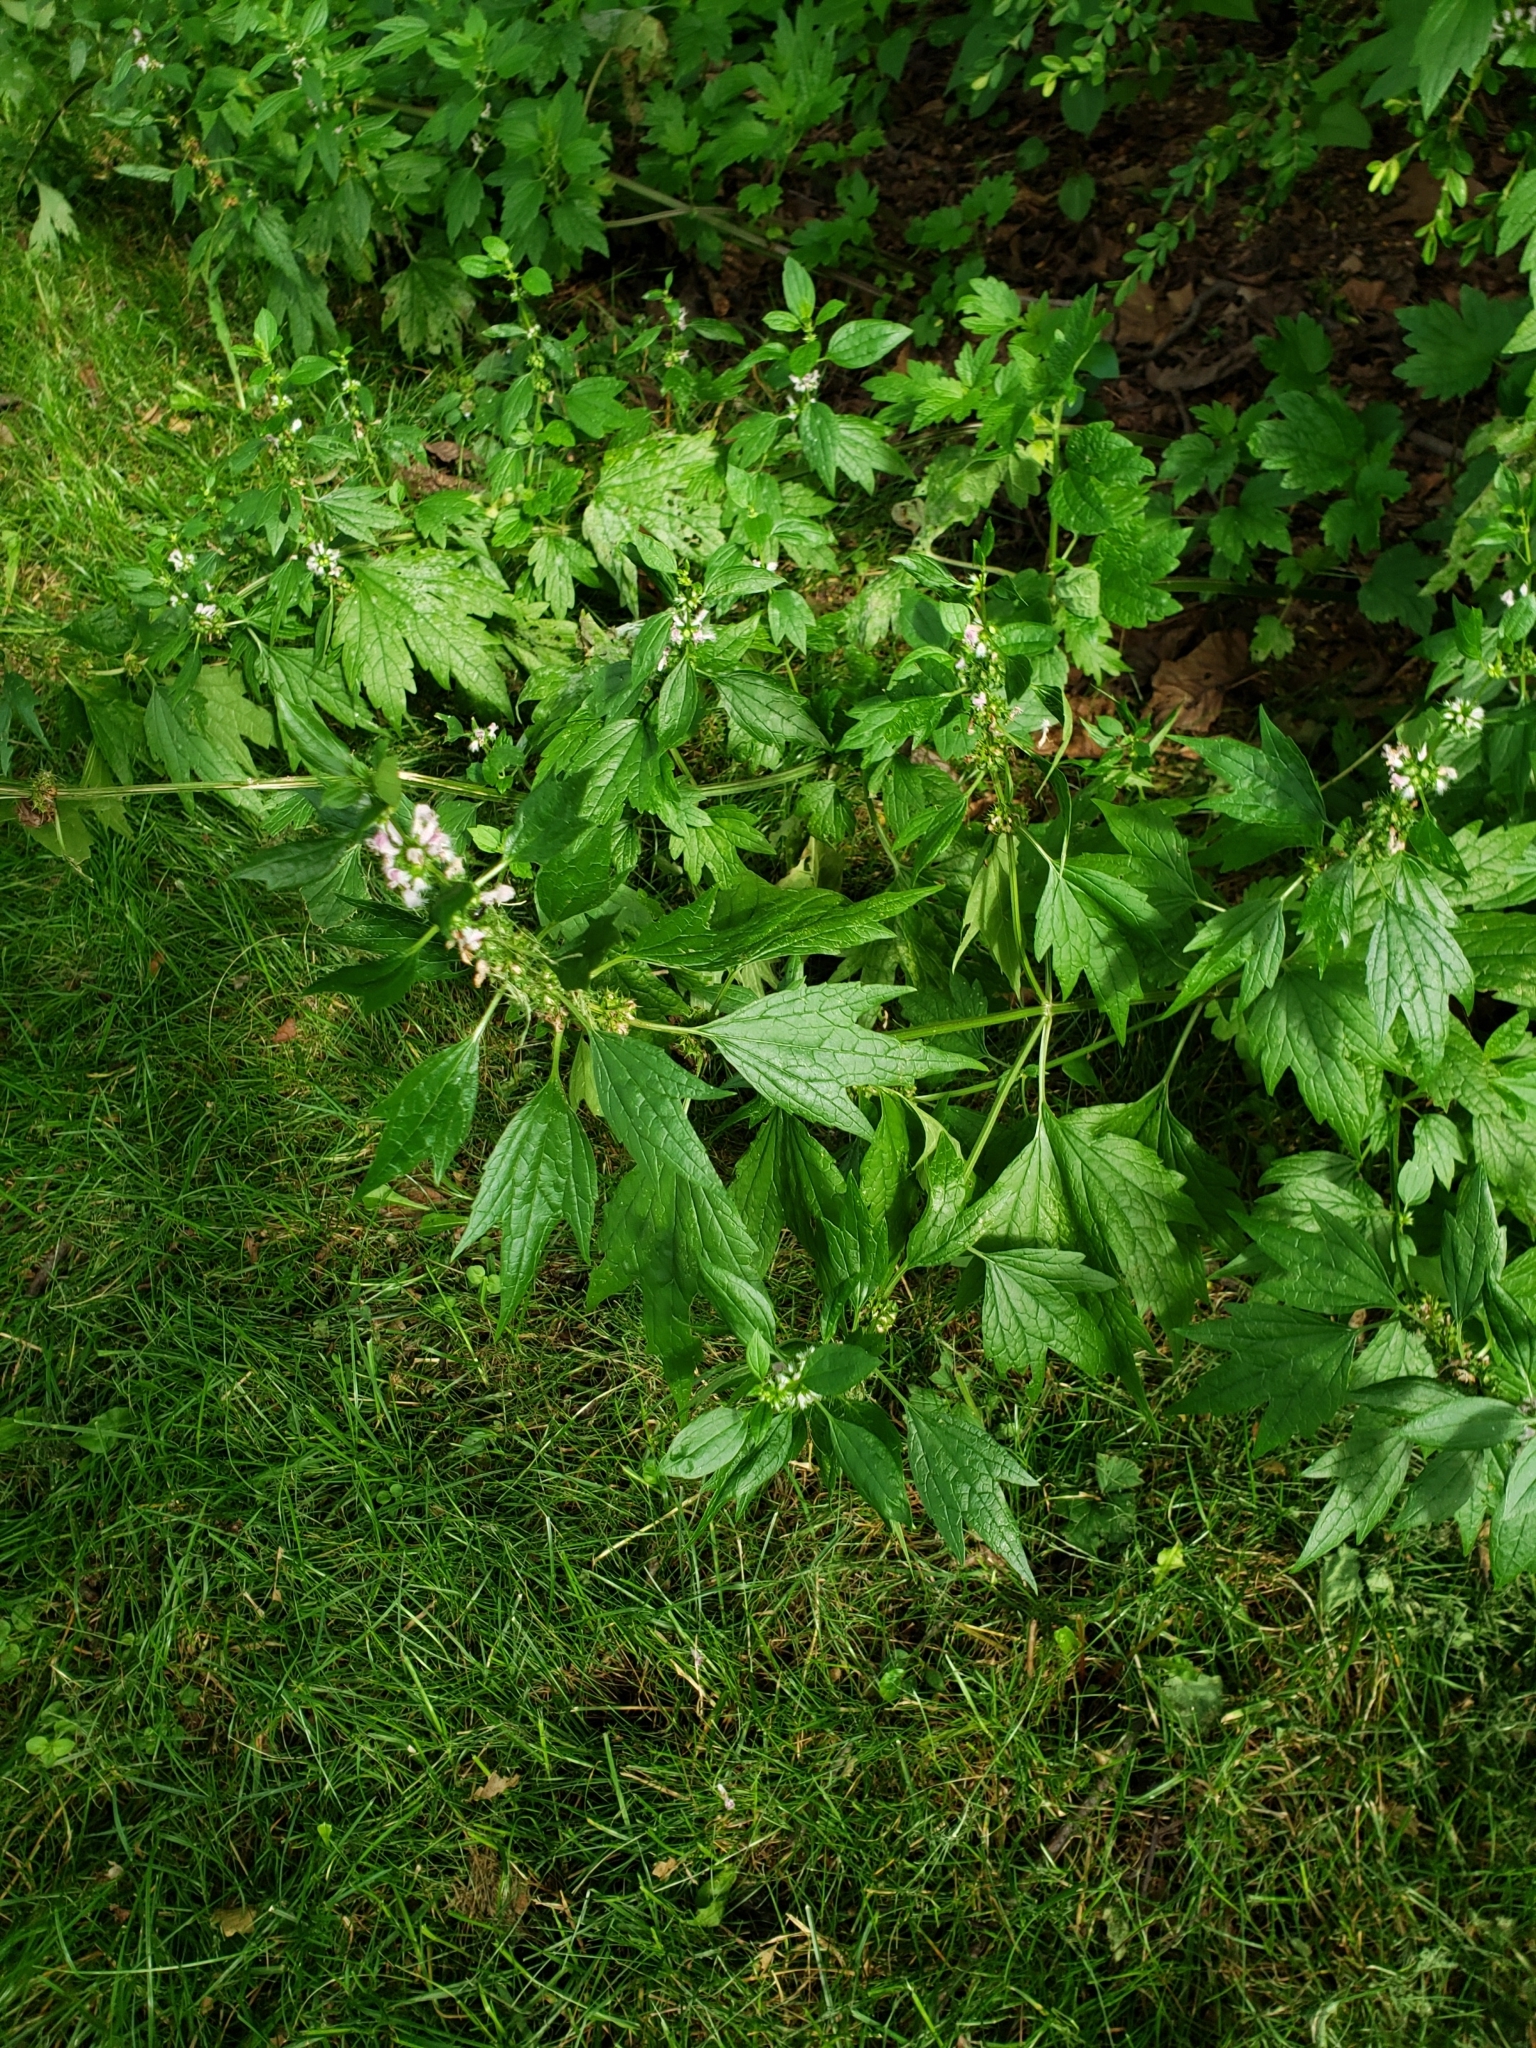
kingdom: Plantae
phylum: Tracheophyta
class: Magnoliopsida
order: Lamiales
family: Lamiaceae
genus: Leonurus
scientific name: Leonurus cardiaca
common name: Motherwort
